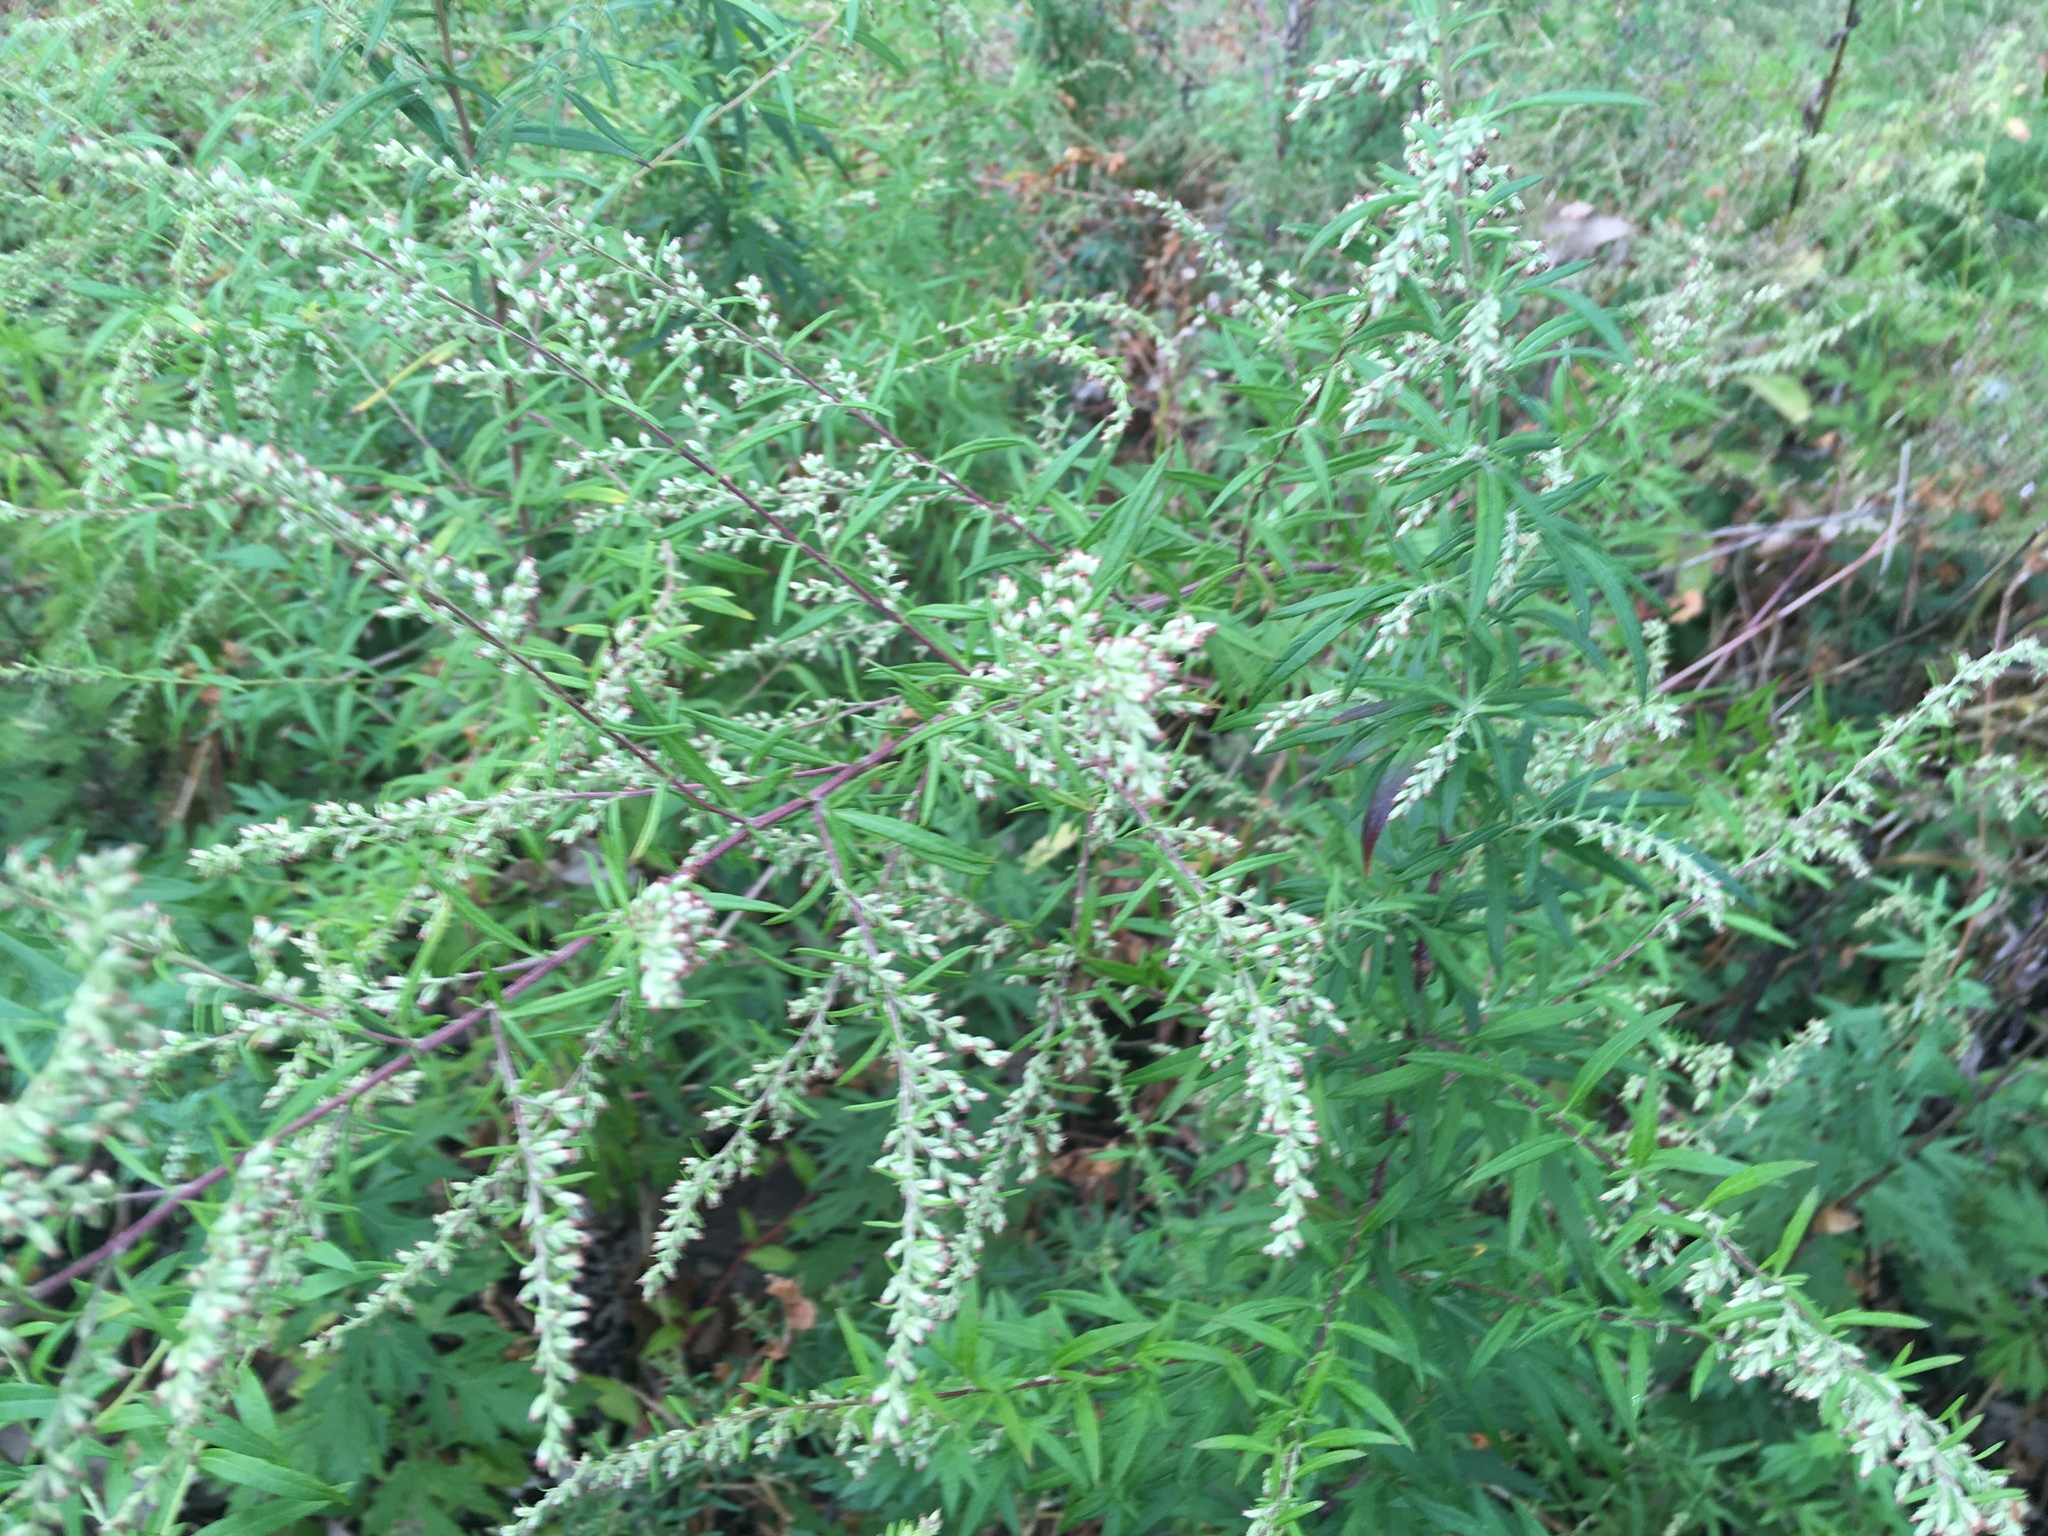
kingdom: Plantae
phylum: Tracheophyta
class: Magnoliopsida
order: Asterales
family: Asteraceae
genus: Artemisia
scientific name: Artemisia vulgaris
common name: Mugwort
